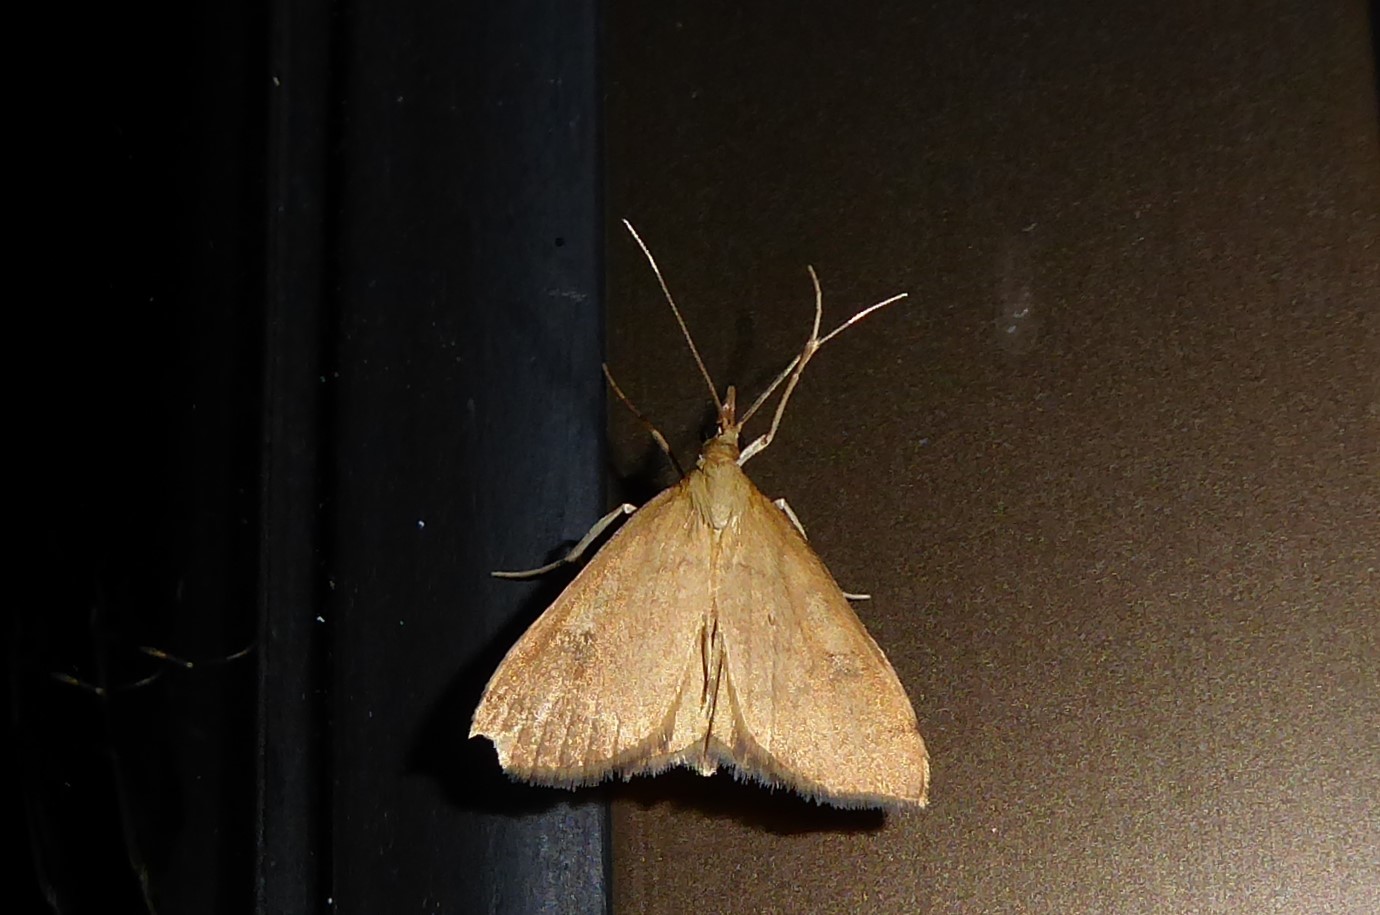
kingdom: Animalia
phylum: Arthropoda
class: Insecta
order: Lepidoptera
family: Crambidae
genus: Udea
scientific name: Udea Mnesictena flavidalis
